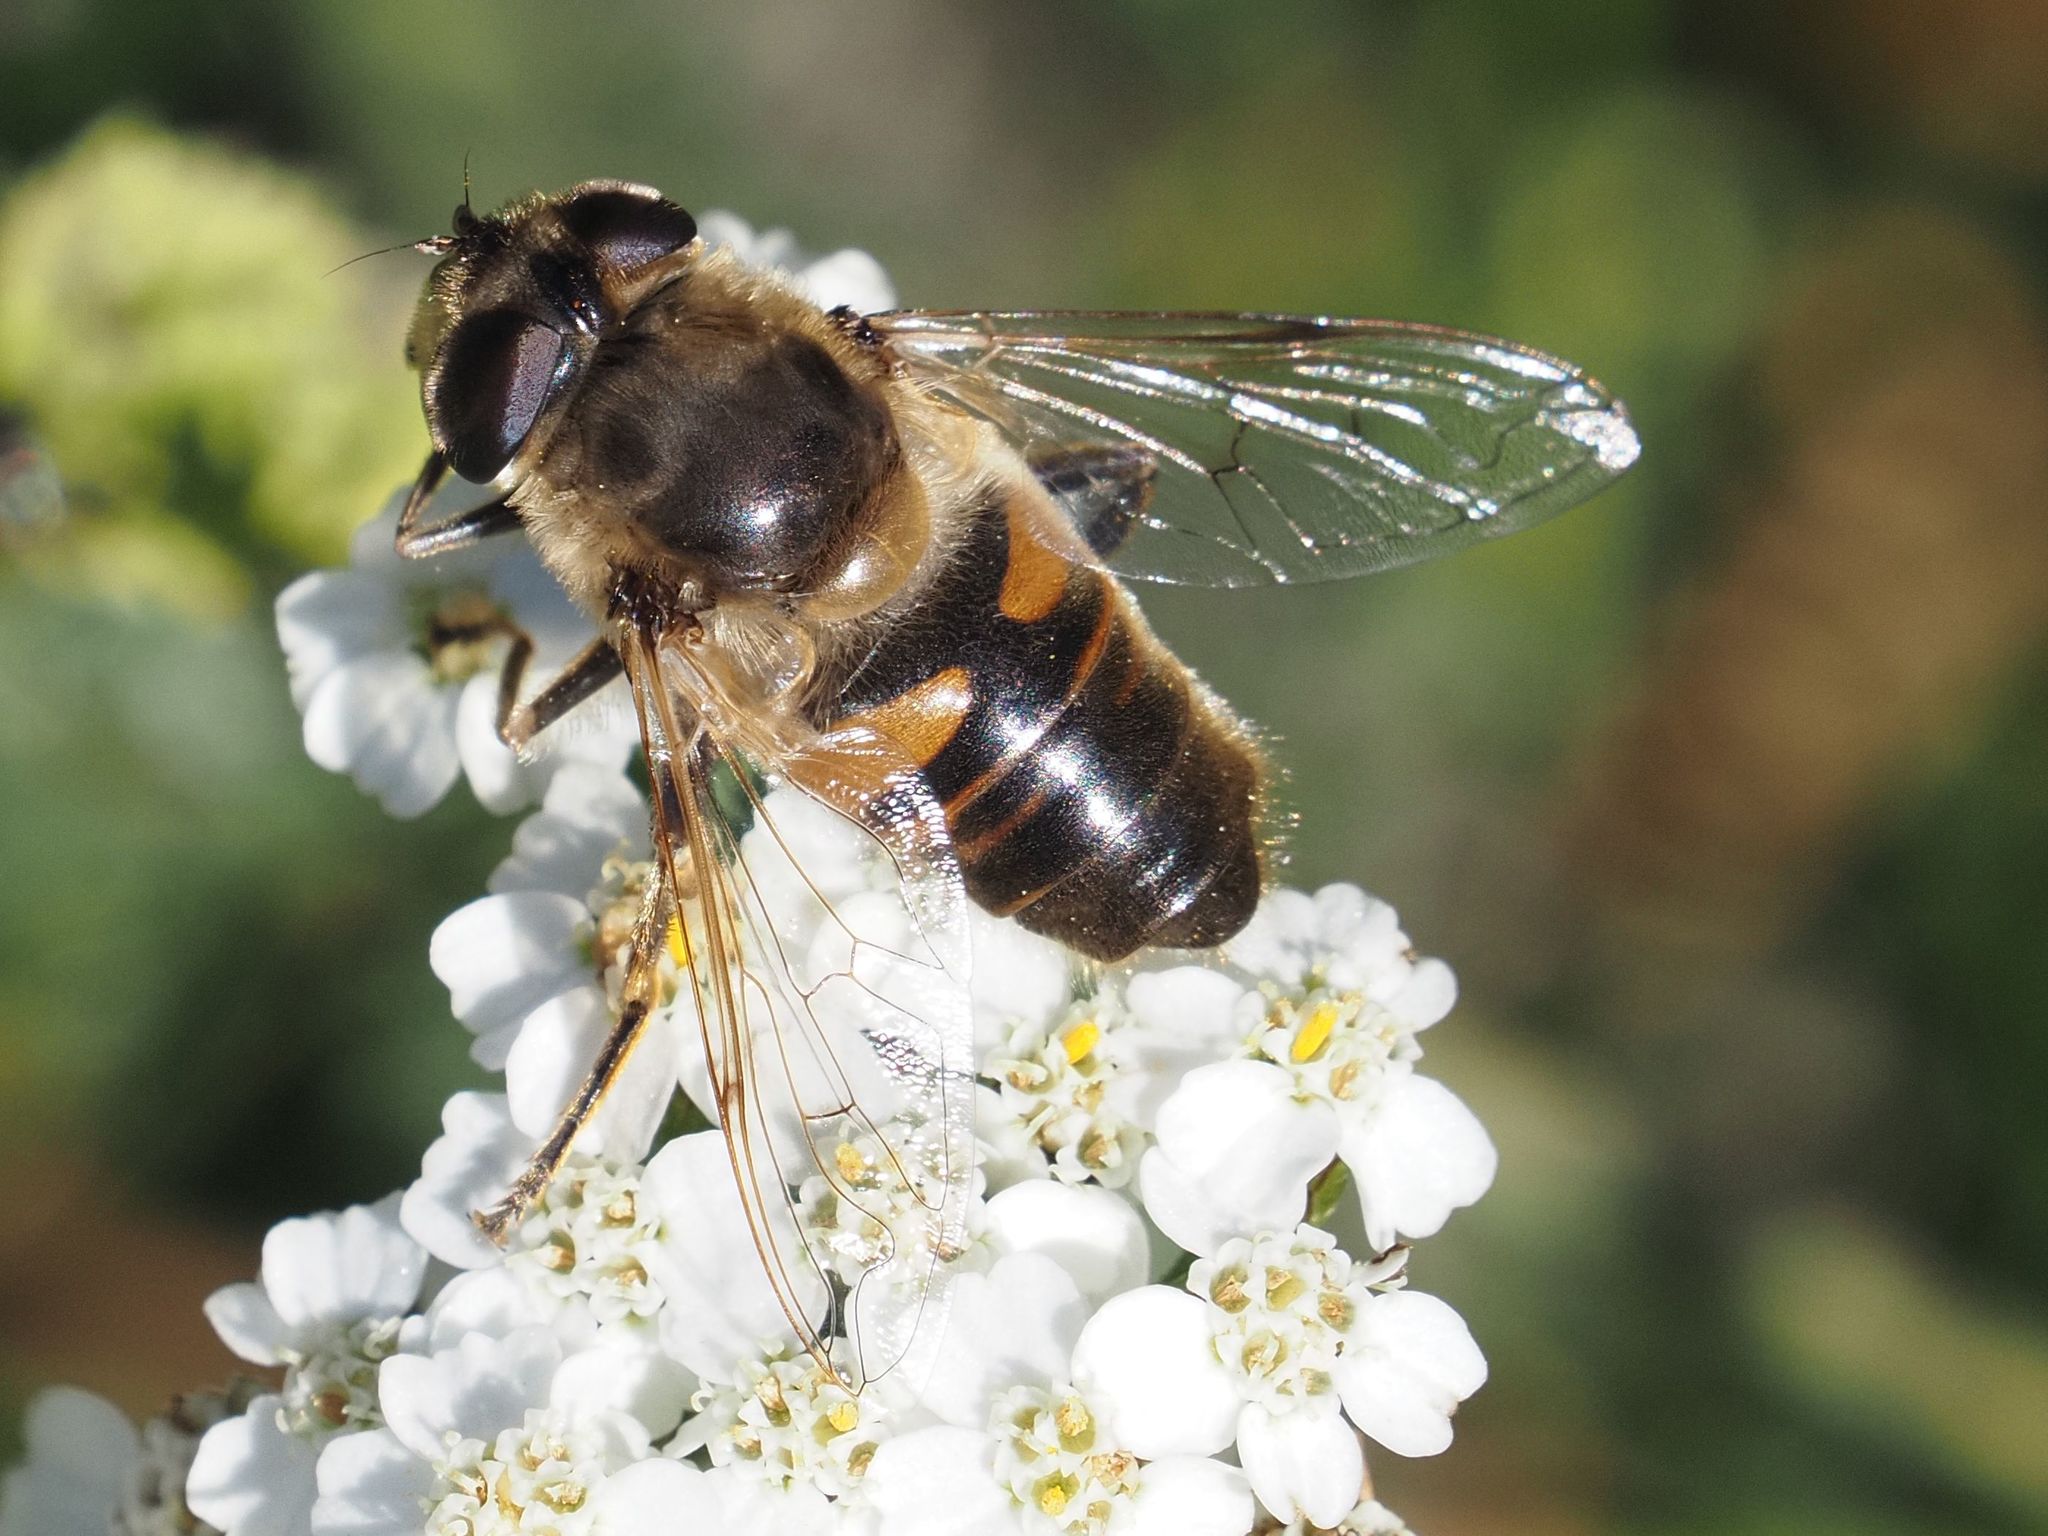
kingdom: Animalia
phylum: Arthropoda
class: Insecta
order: Diptera
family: Syrphidae
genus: Eristalis
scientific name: Eristalis tenax
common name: Drone fly
